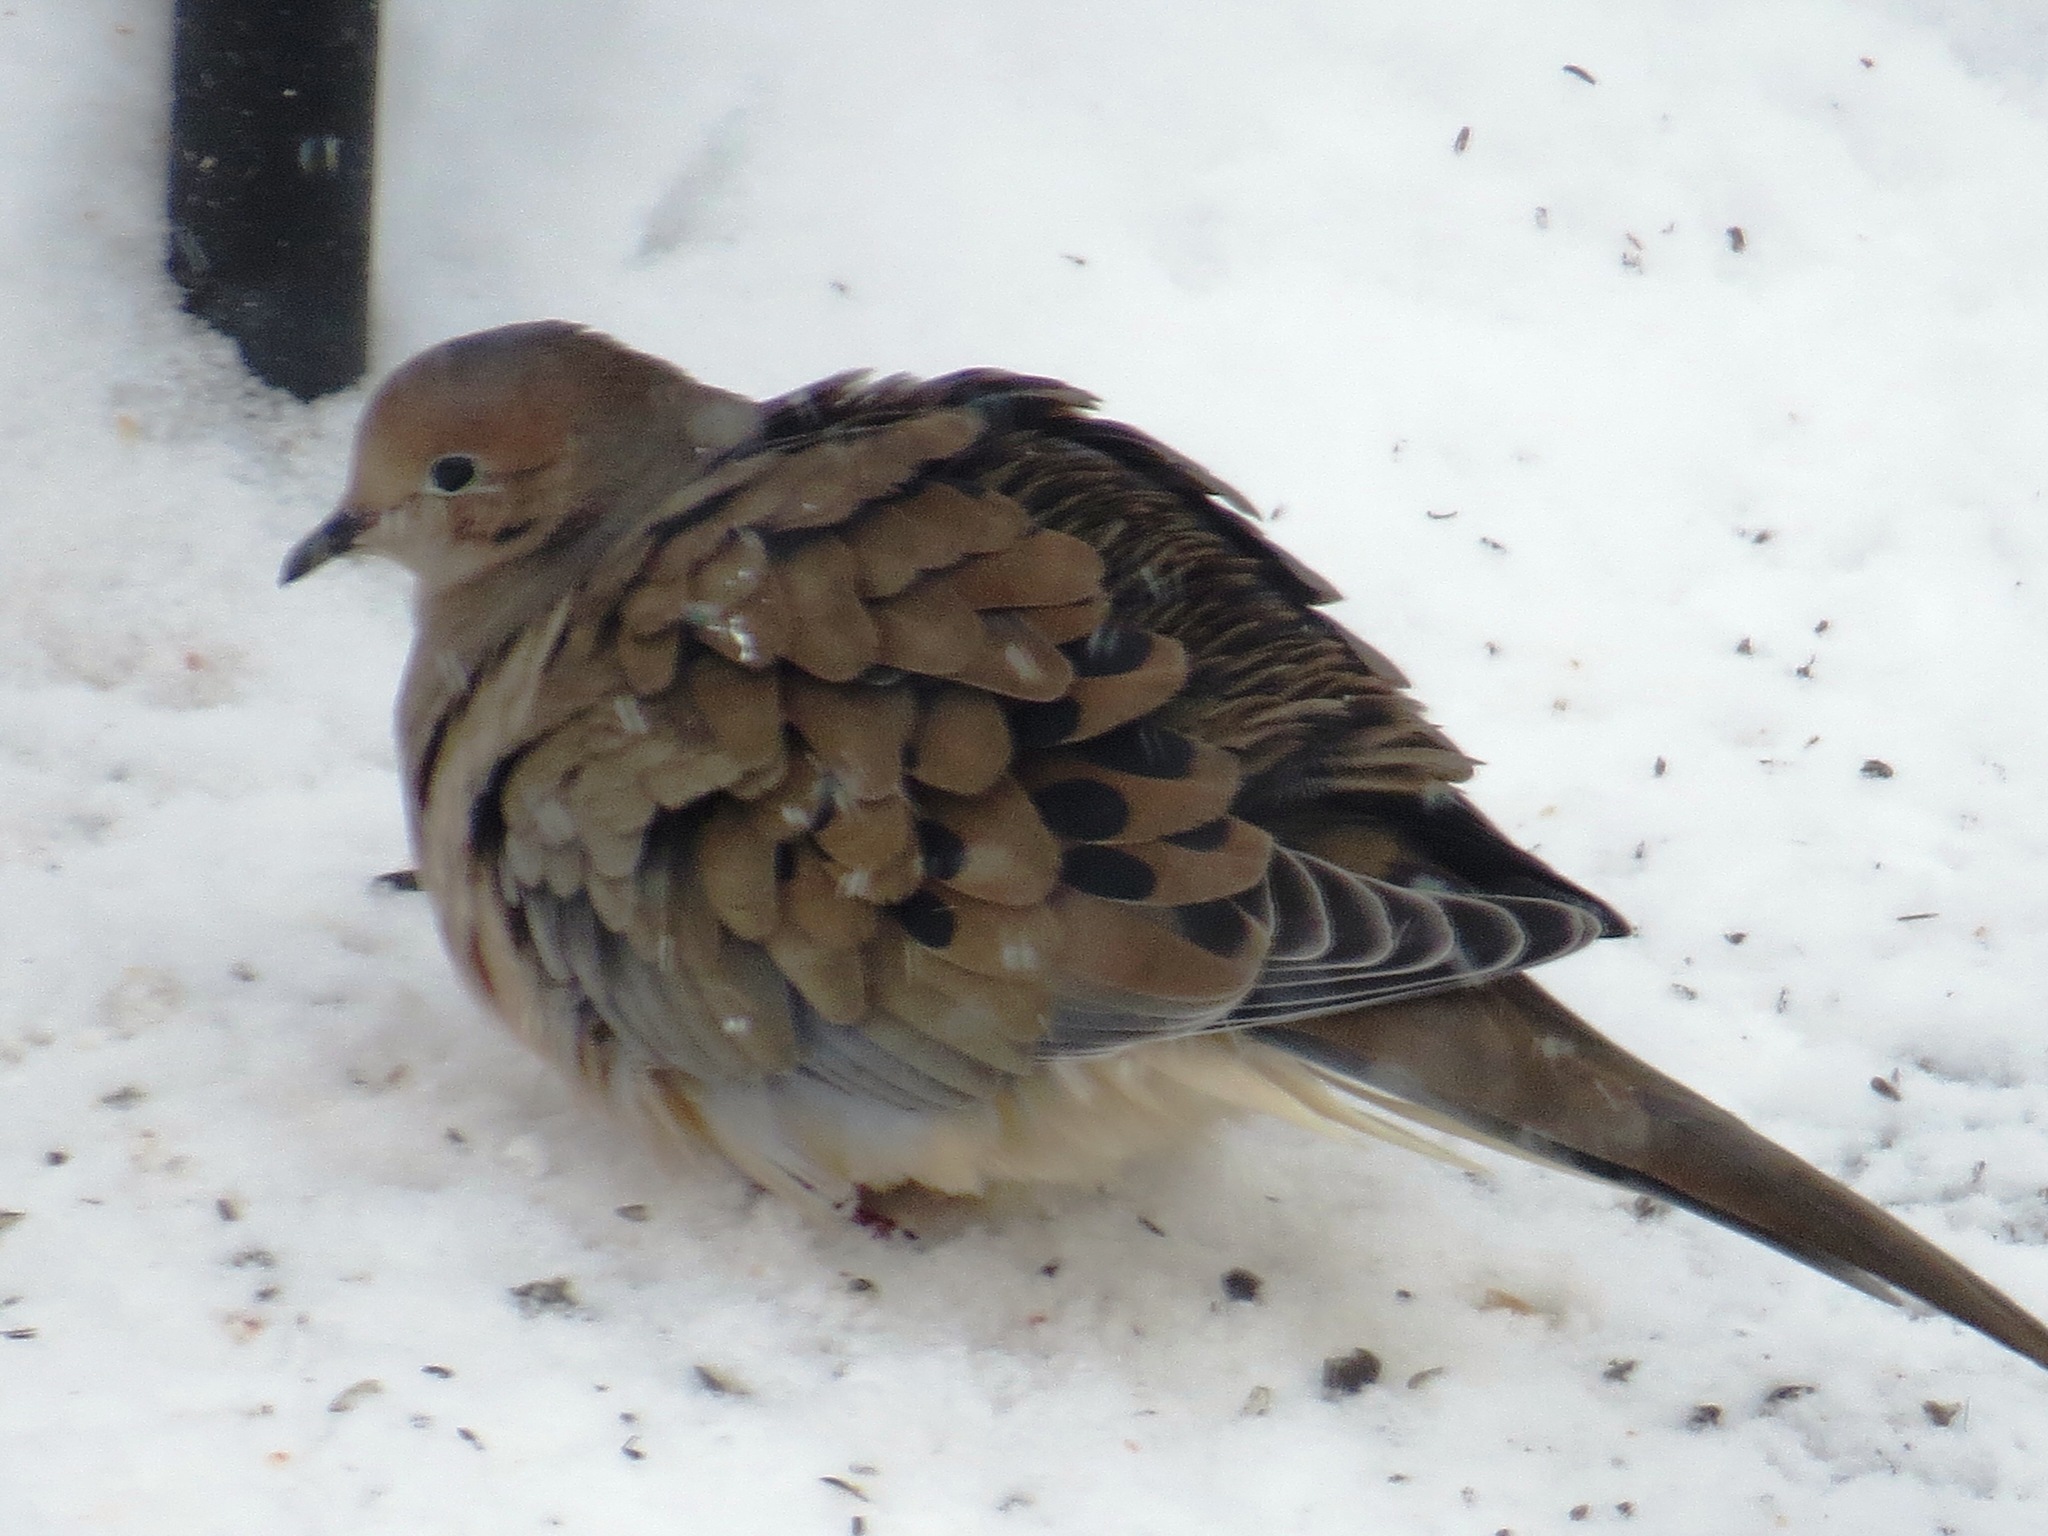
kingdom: Animalia
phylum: Chordata
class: Aves
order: Columbiformes
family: Columbidae
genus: Zenaida
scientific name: Zenaida macroura
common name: Mourning dove
